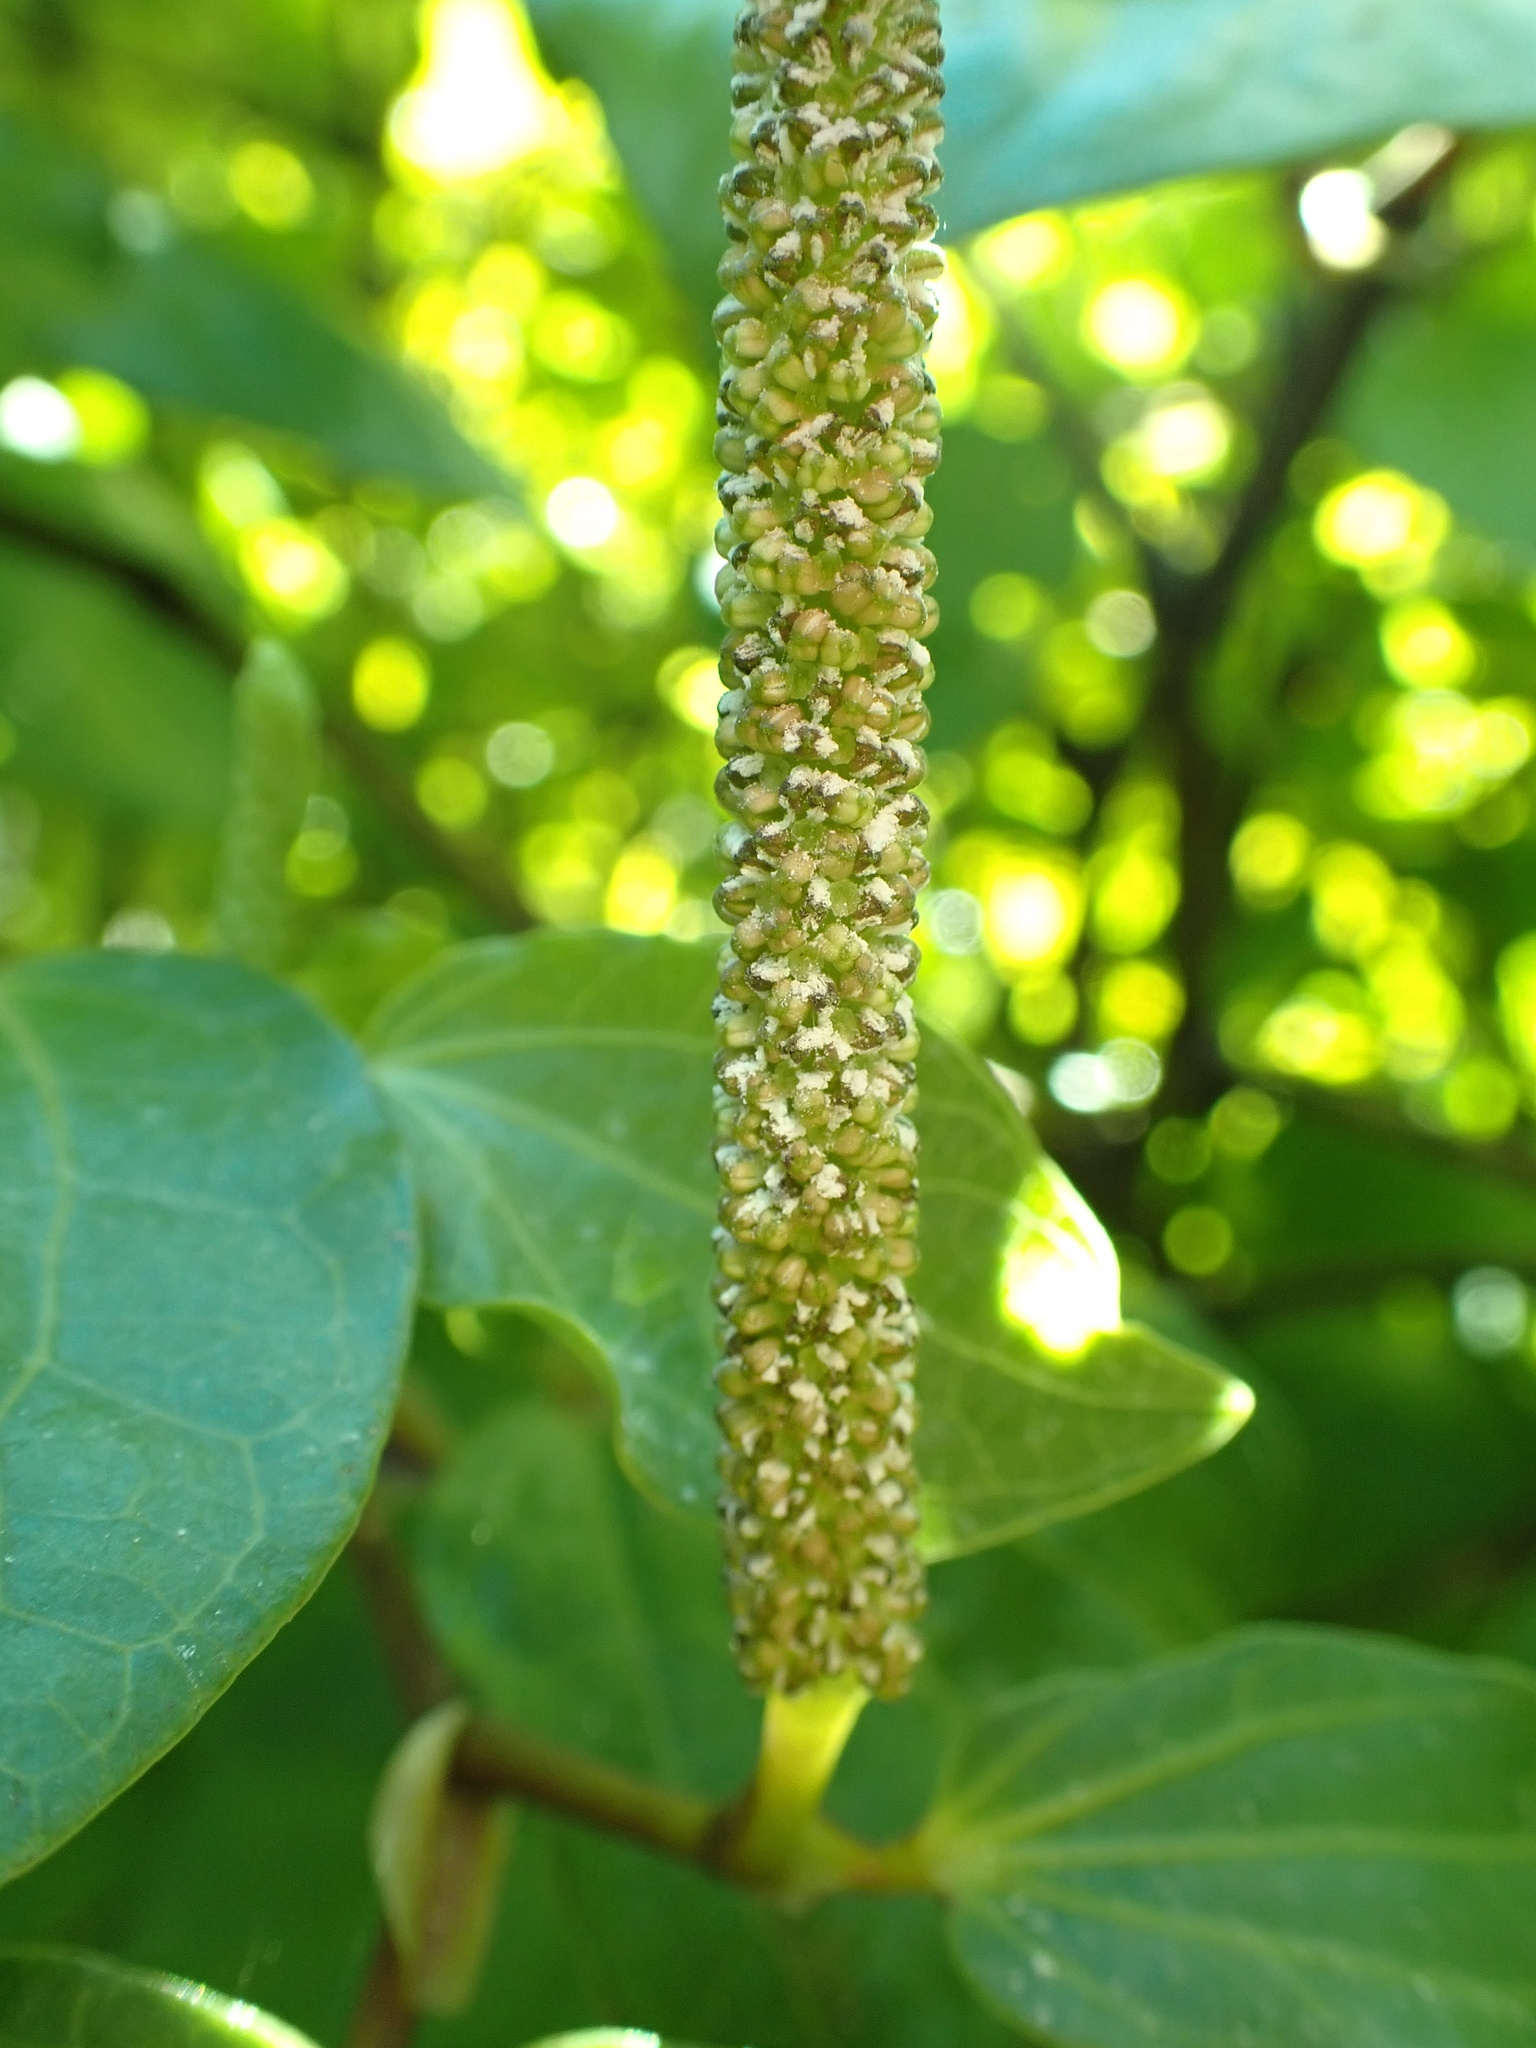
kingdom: Plantae
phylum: Tracheophyta
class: Magnoliopsida
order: Piperales
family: Piperaceae
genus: Macropiper
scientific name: Macropiper excelsum
